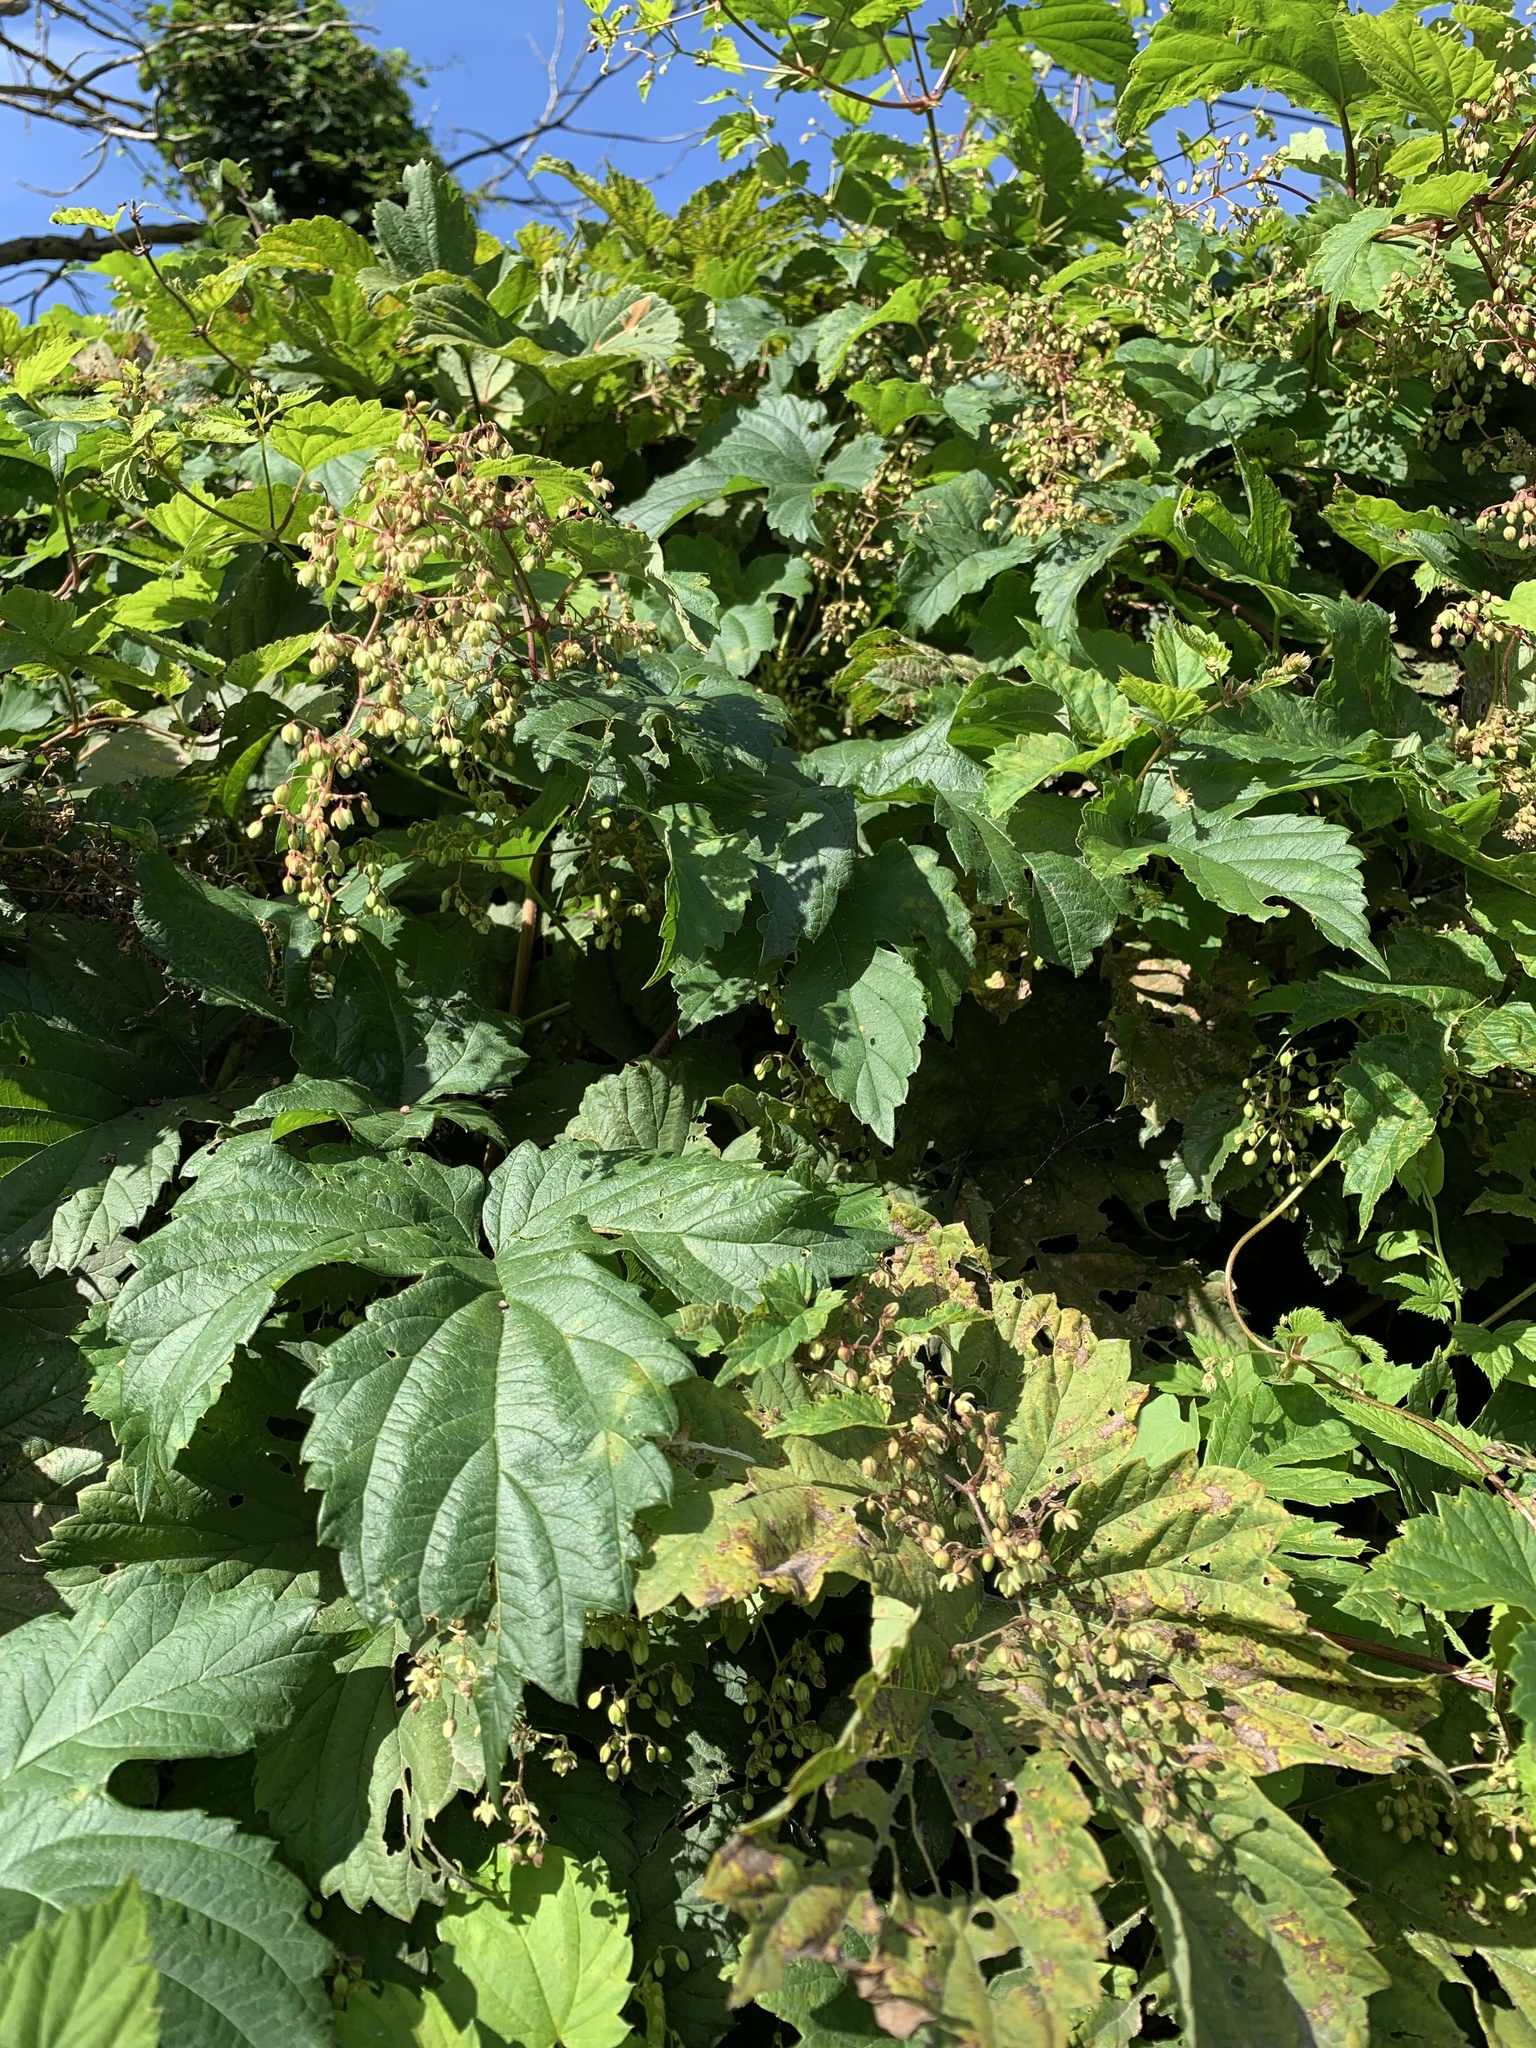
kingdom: Plantae
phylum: Tracheophyta
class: Magnoliopsida
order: Rosales
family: Cannabaceae
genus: Humulus
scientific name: Humulus lupulus
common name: Hop
